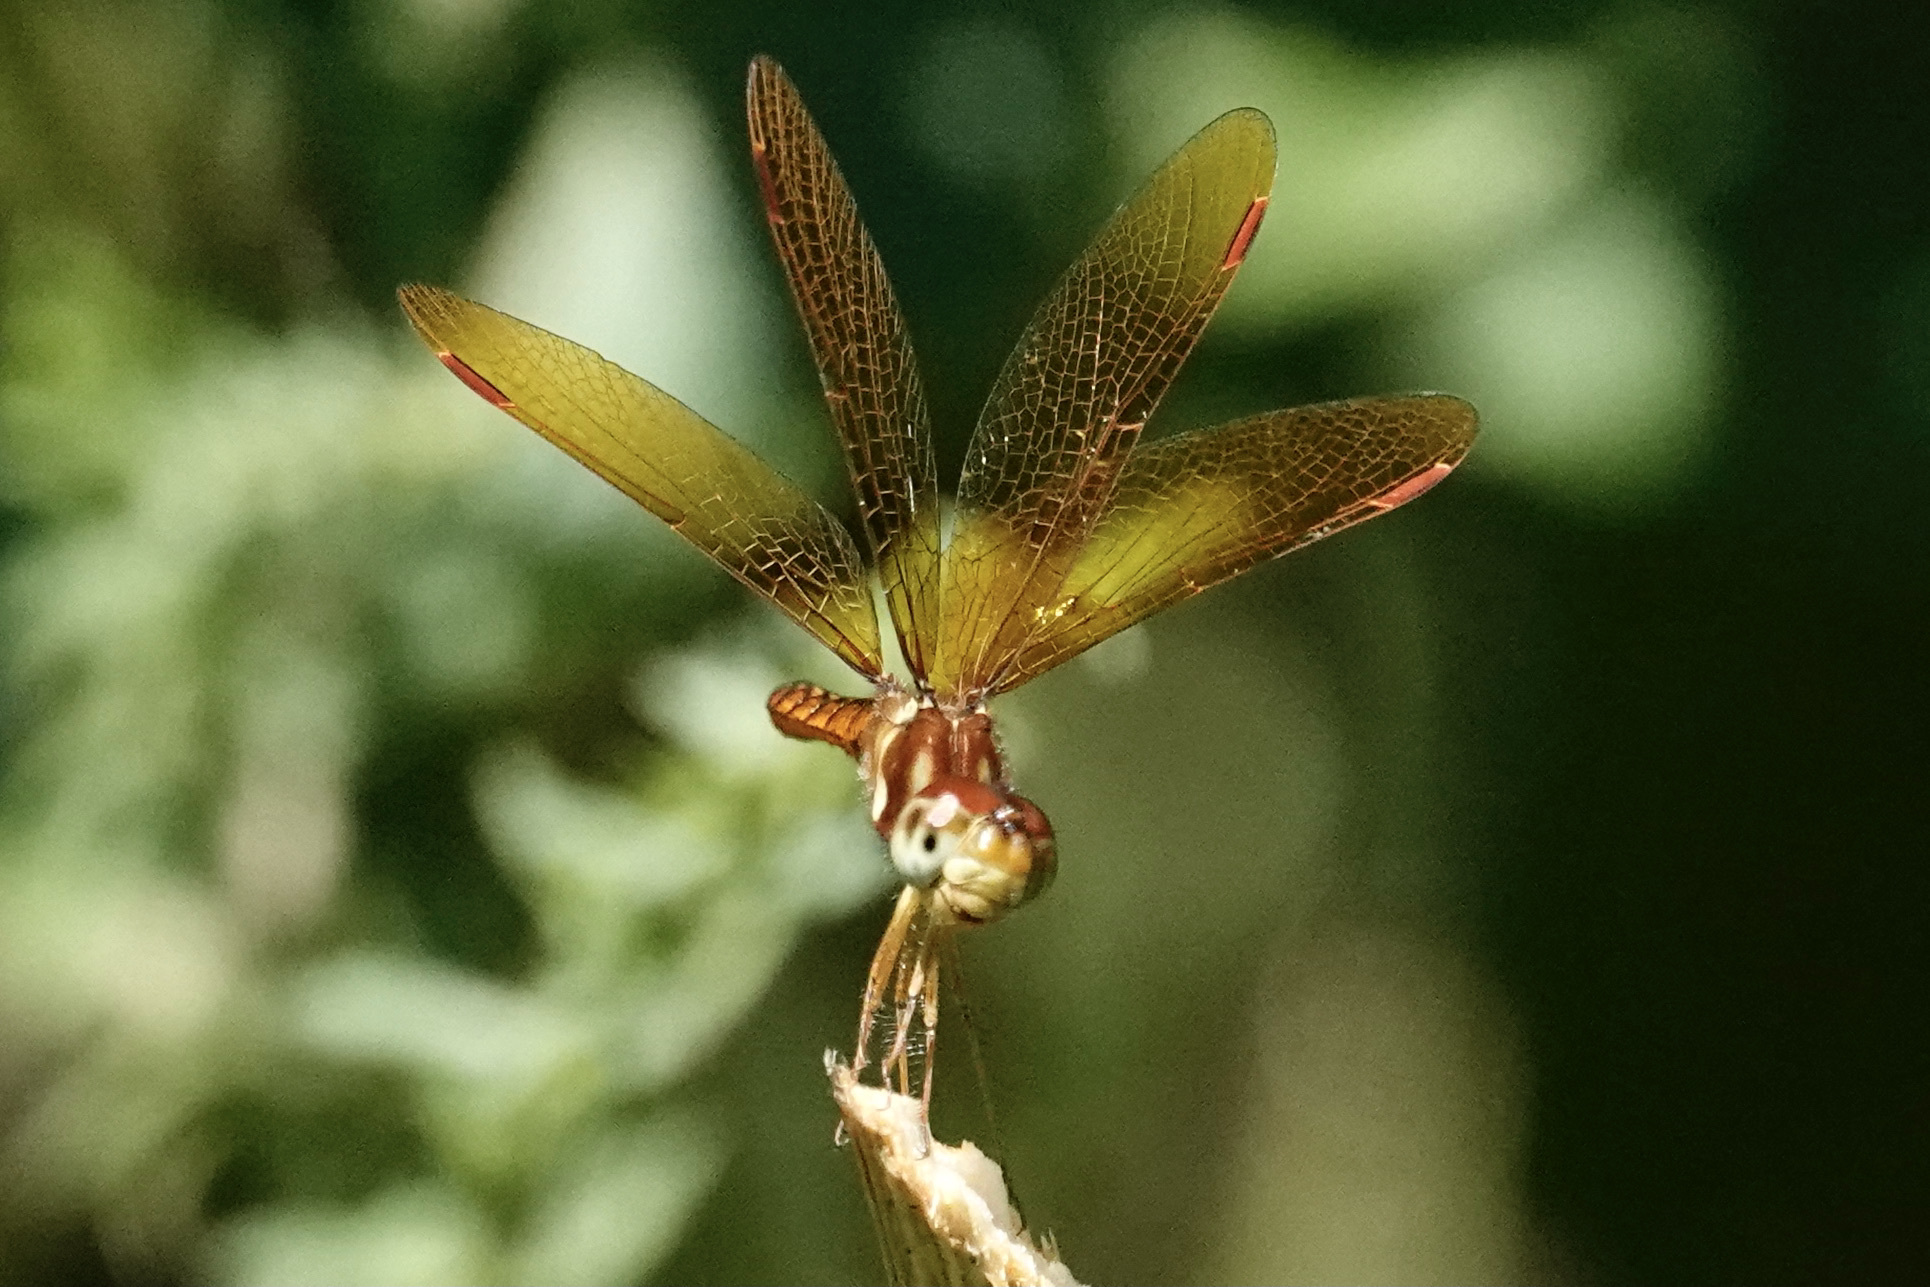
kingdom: Animalia
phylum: Arthropoda
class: Insecta
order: Odonata
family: Libellulidae
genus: Perithemis
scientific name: Perithemis tenera
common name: Eastern amberwing
